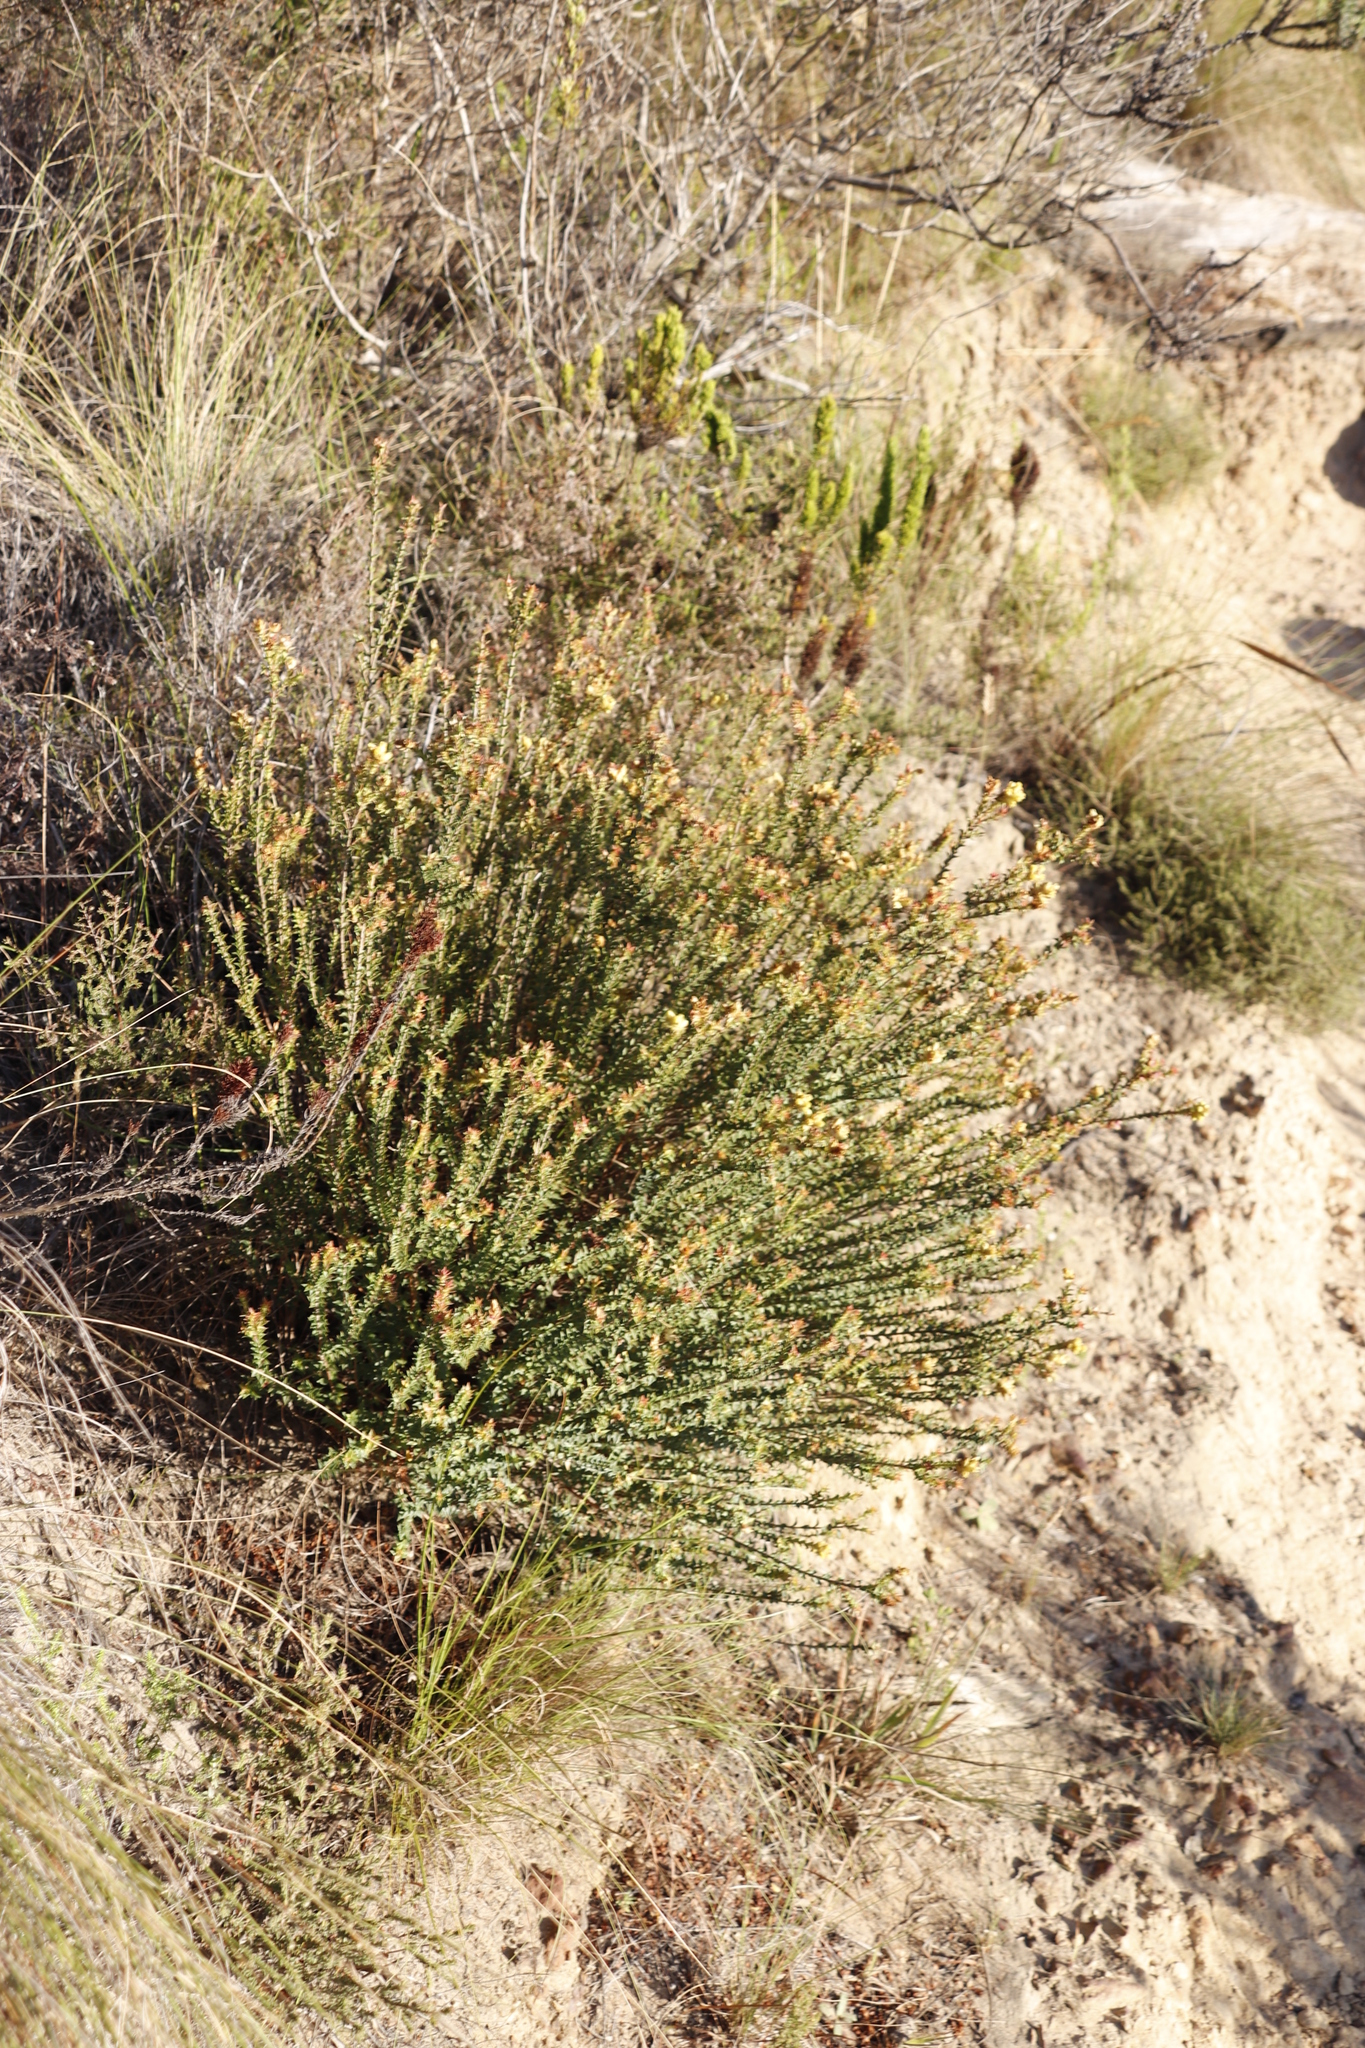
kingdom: Plantae
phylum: Tracheophyta
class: Magnoliopsida
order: Myrtales
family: Penaeaceae
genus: Penaea
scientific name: Penaea mucronata
